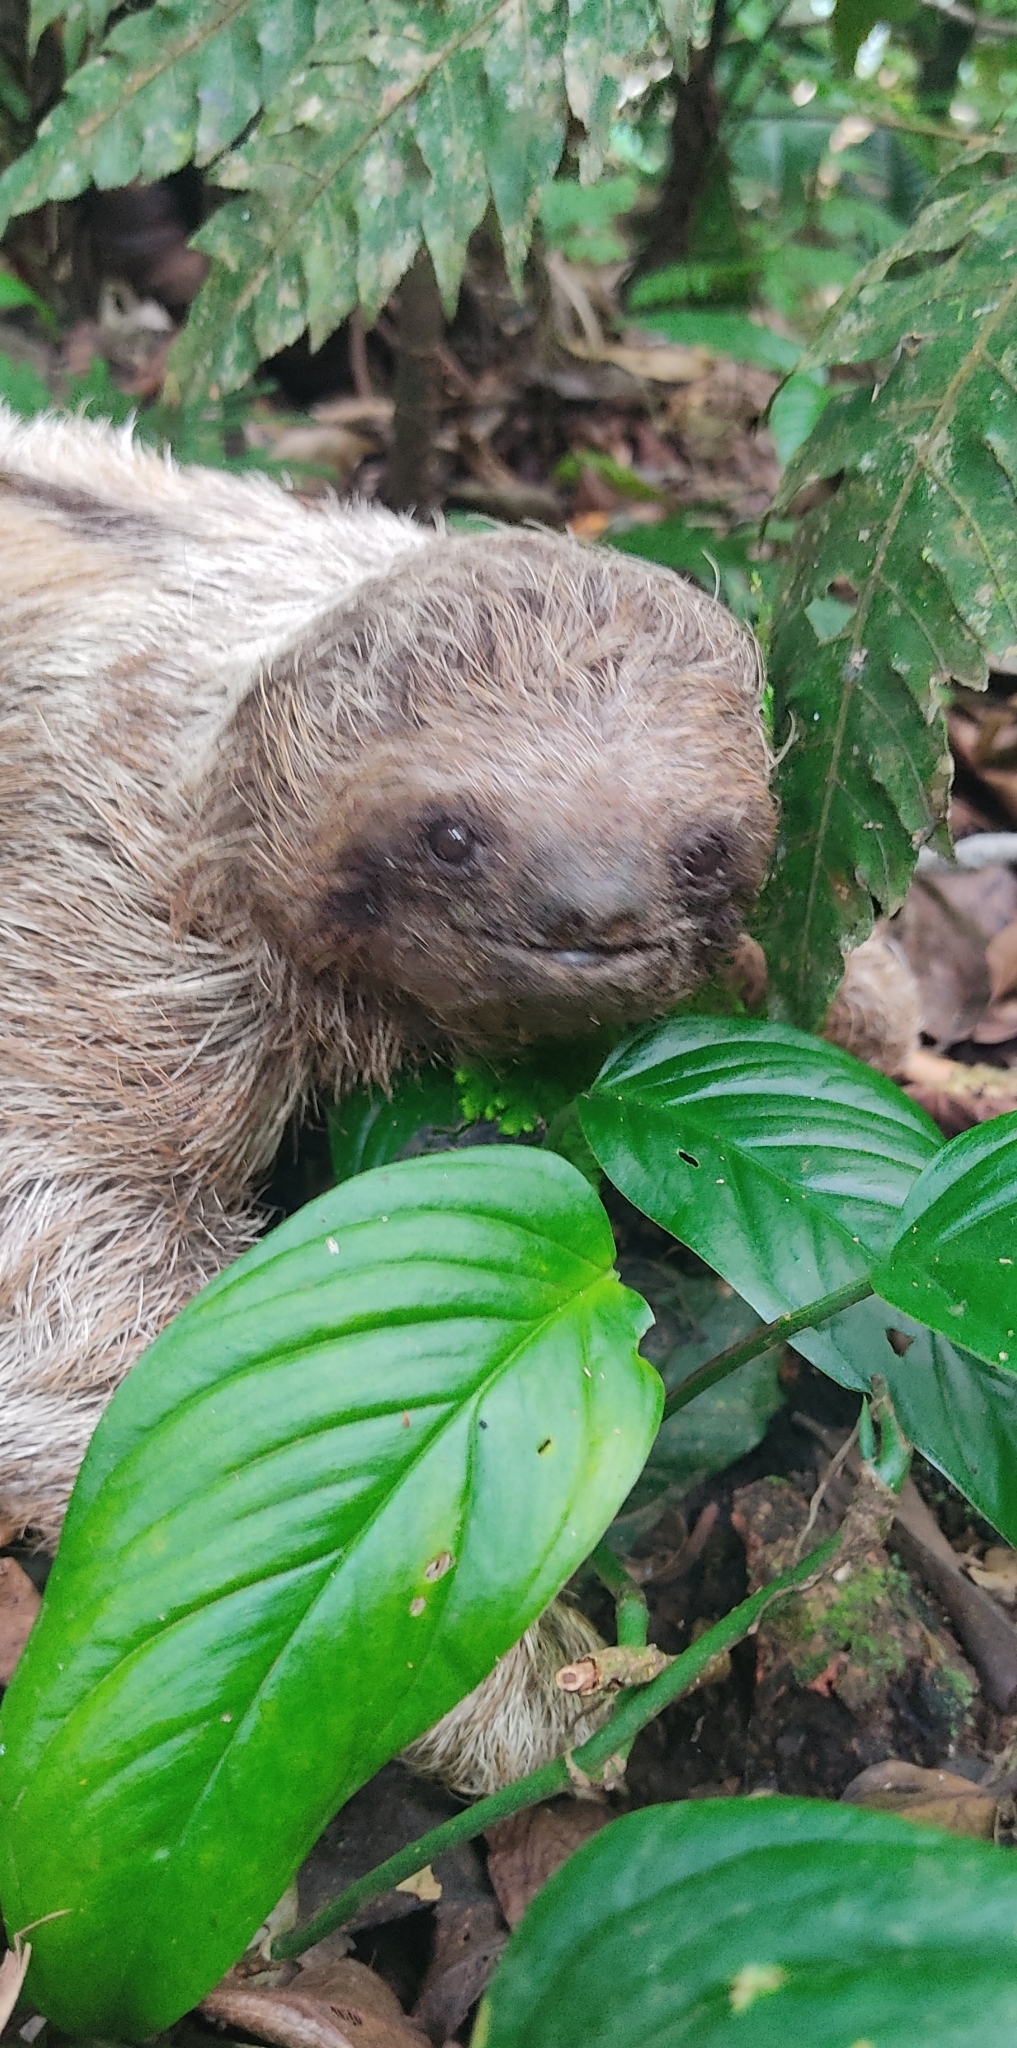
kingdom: Animalia
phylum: Chordata
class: Mammalia
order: Pilosa
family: Bradypodidae
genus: Bradypus
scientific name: Bradypus variegatus
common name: Brown-throated three-toed sloth
